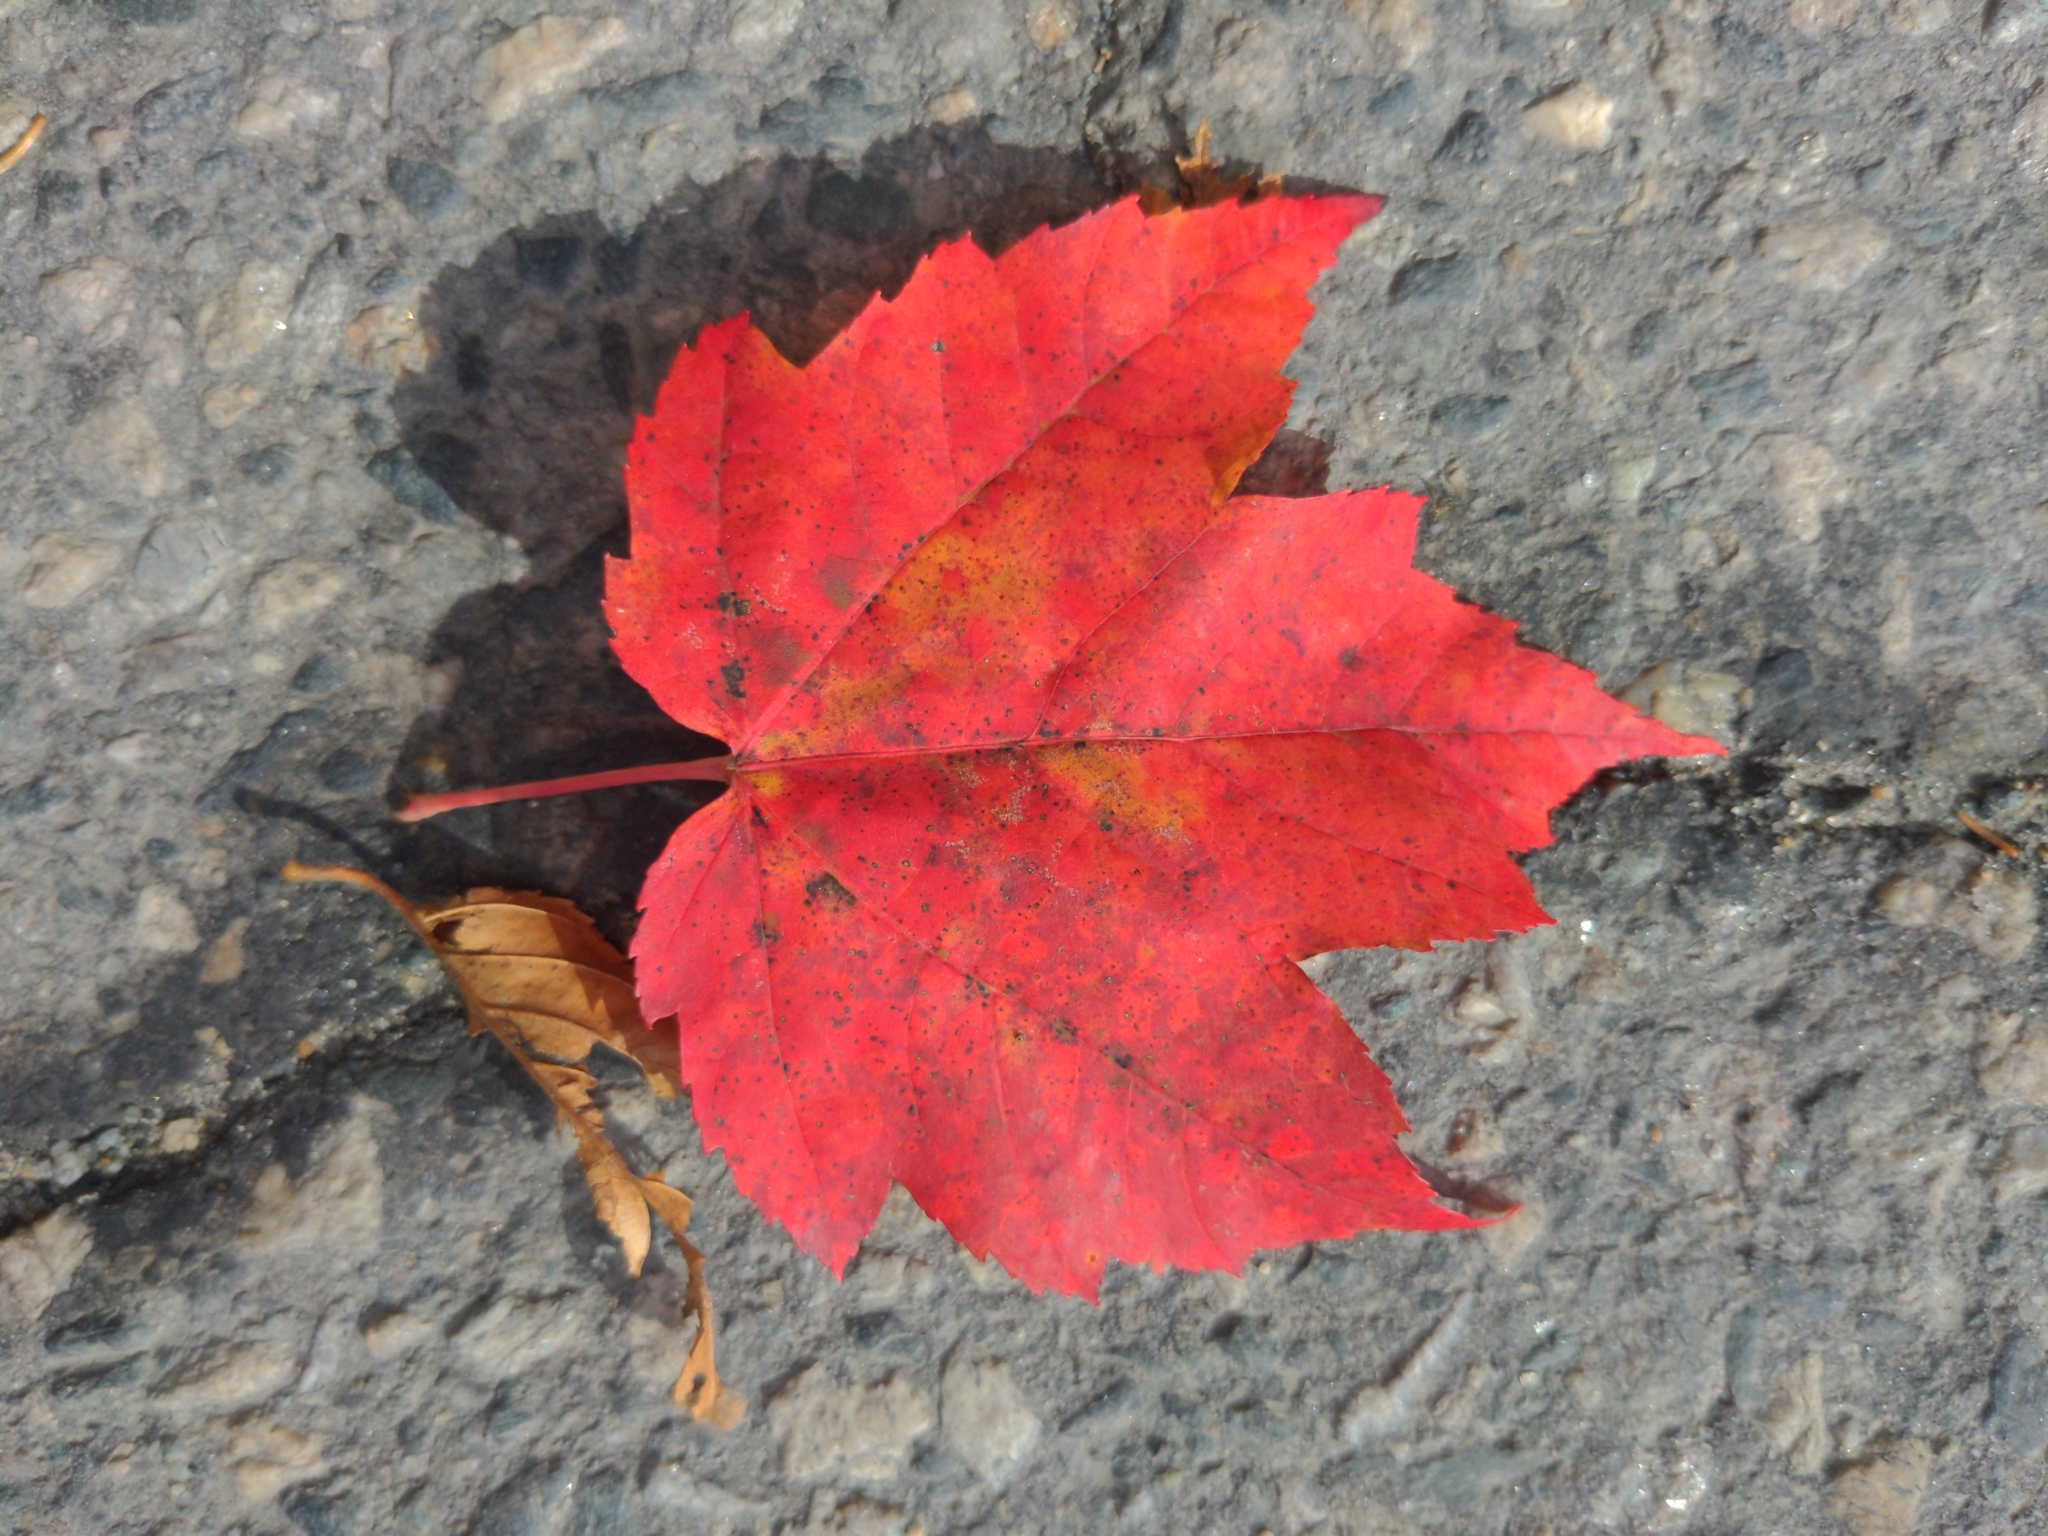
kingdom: Plantae
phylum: Tracheophyta
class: Magnoliopsida
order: Sapindales
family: Sapindaceae
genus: Acer
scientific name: Acer rubrum
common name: Red maple
